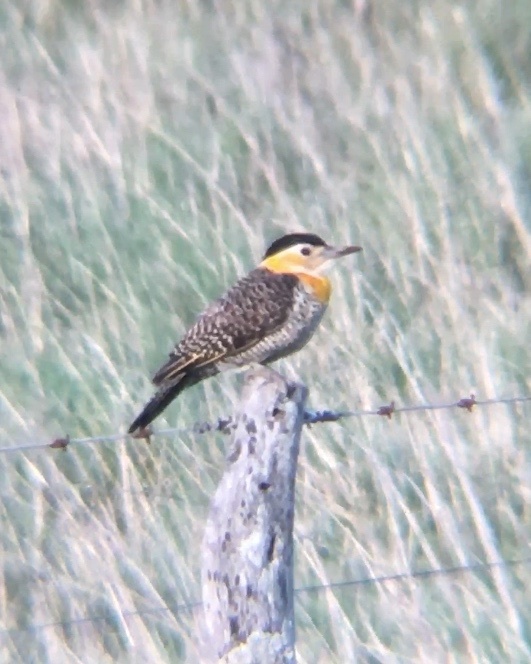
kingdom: Animalia
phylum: Chordata
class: Aves
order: Piciformes
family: Picidae
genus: Colaptes
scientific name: Colaptes campestris
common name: Campo flicker
